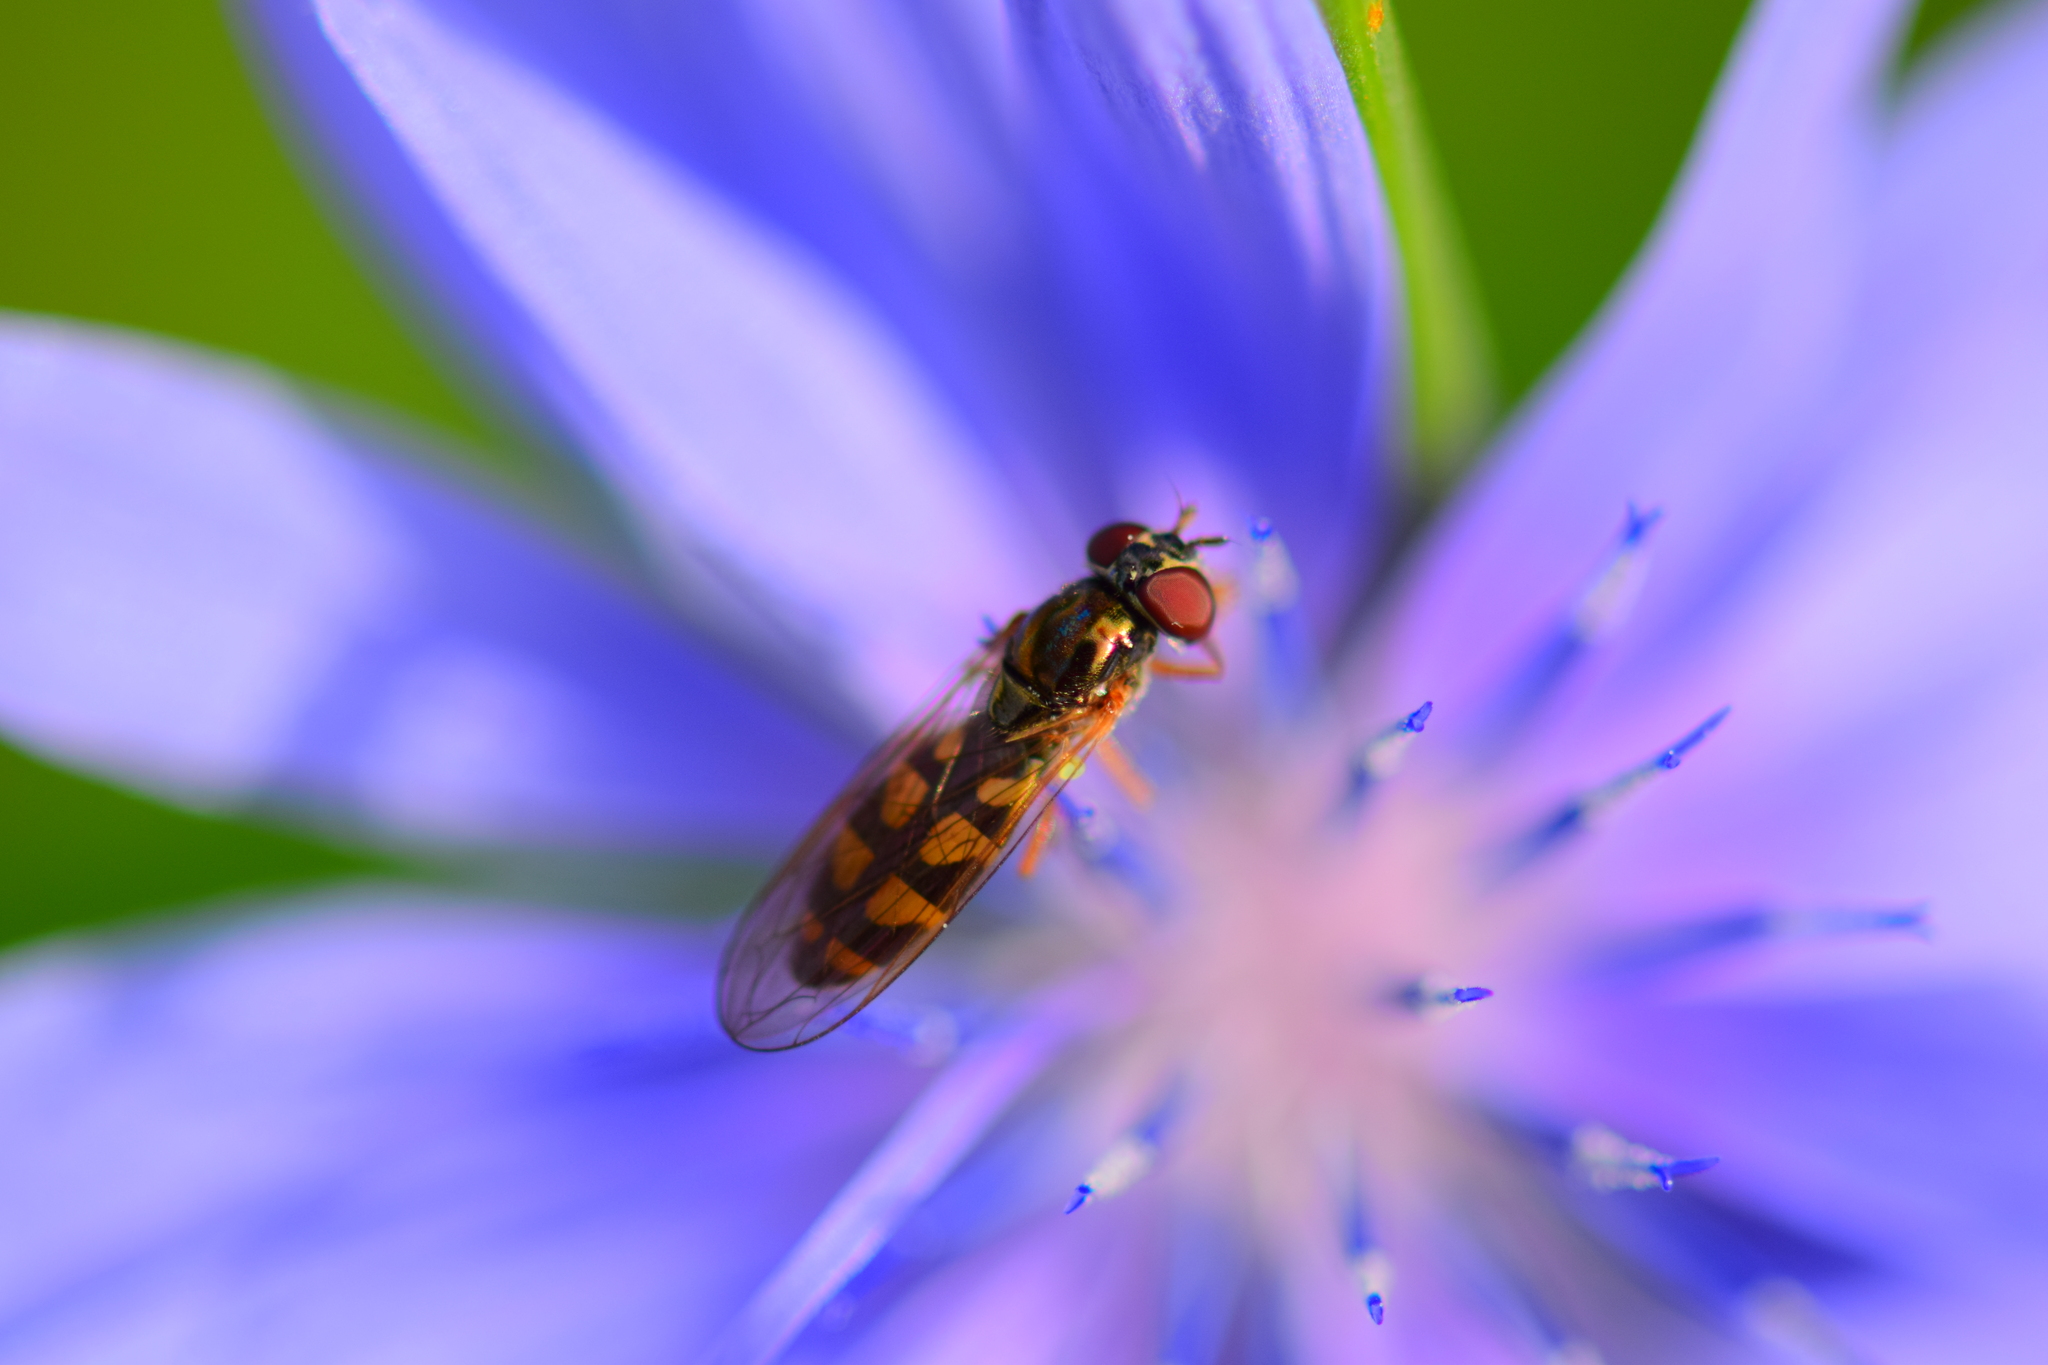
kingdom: Animalia
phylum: Arthropoda
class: Insecta
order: Diptera
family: Syrphidae
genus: Melanostoma
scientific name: Melanostoma mellina
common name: Hover fly
